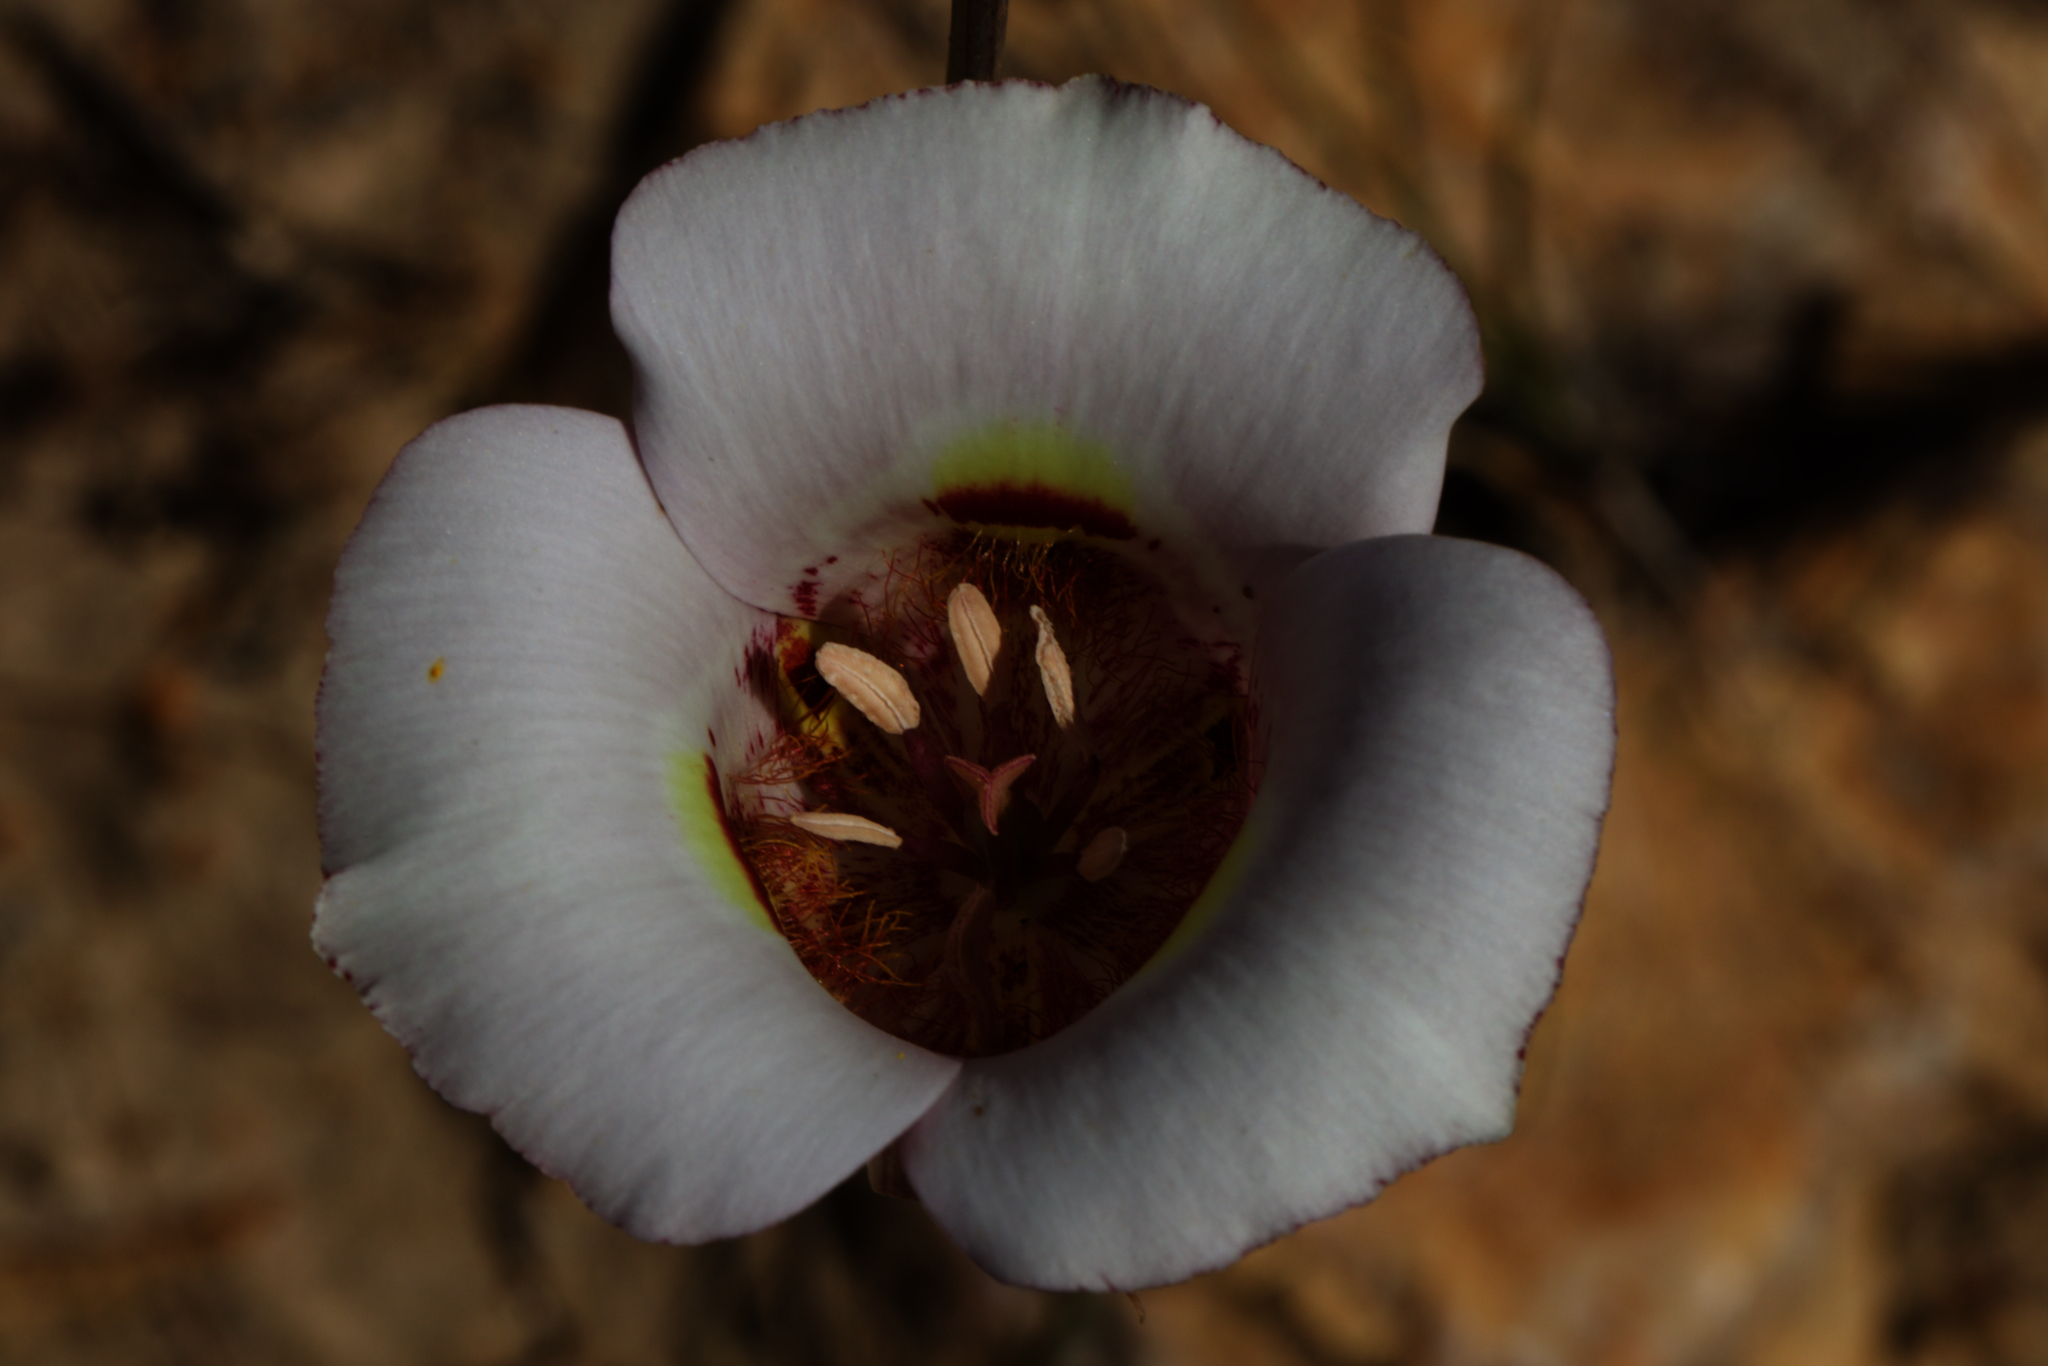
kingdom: Plantae
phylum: Tracheophyta
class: Liliopsida
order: Liliales
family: Liliaceae
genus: Calochortus
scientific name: Calochortus argillosus
